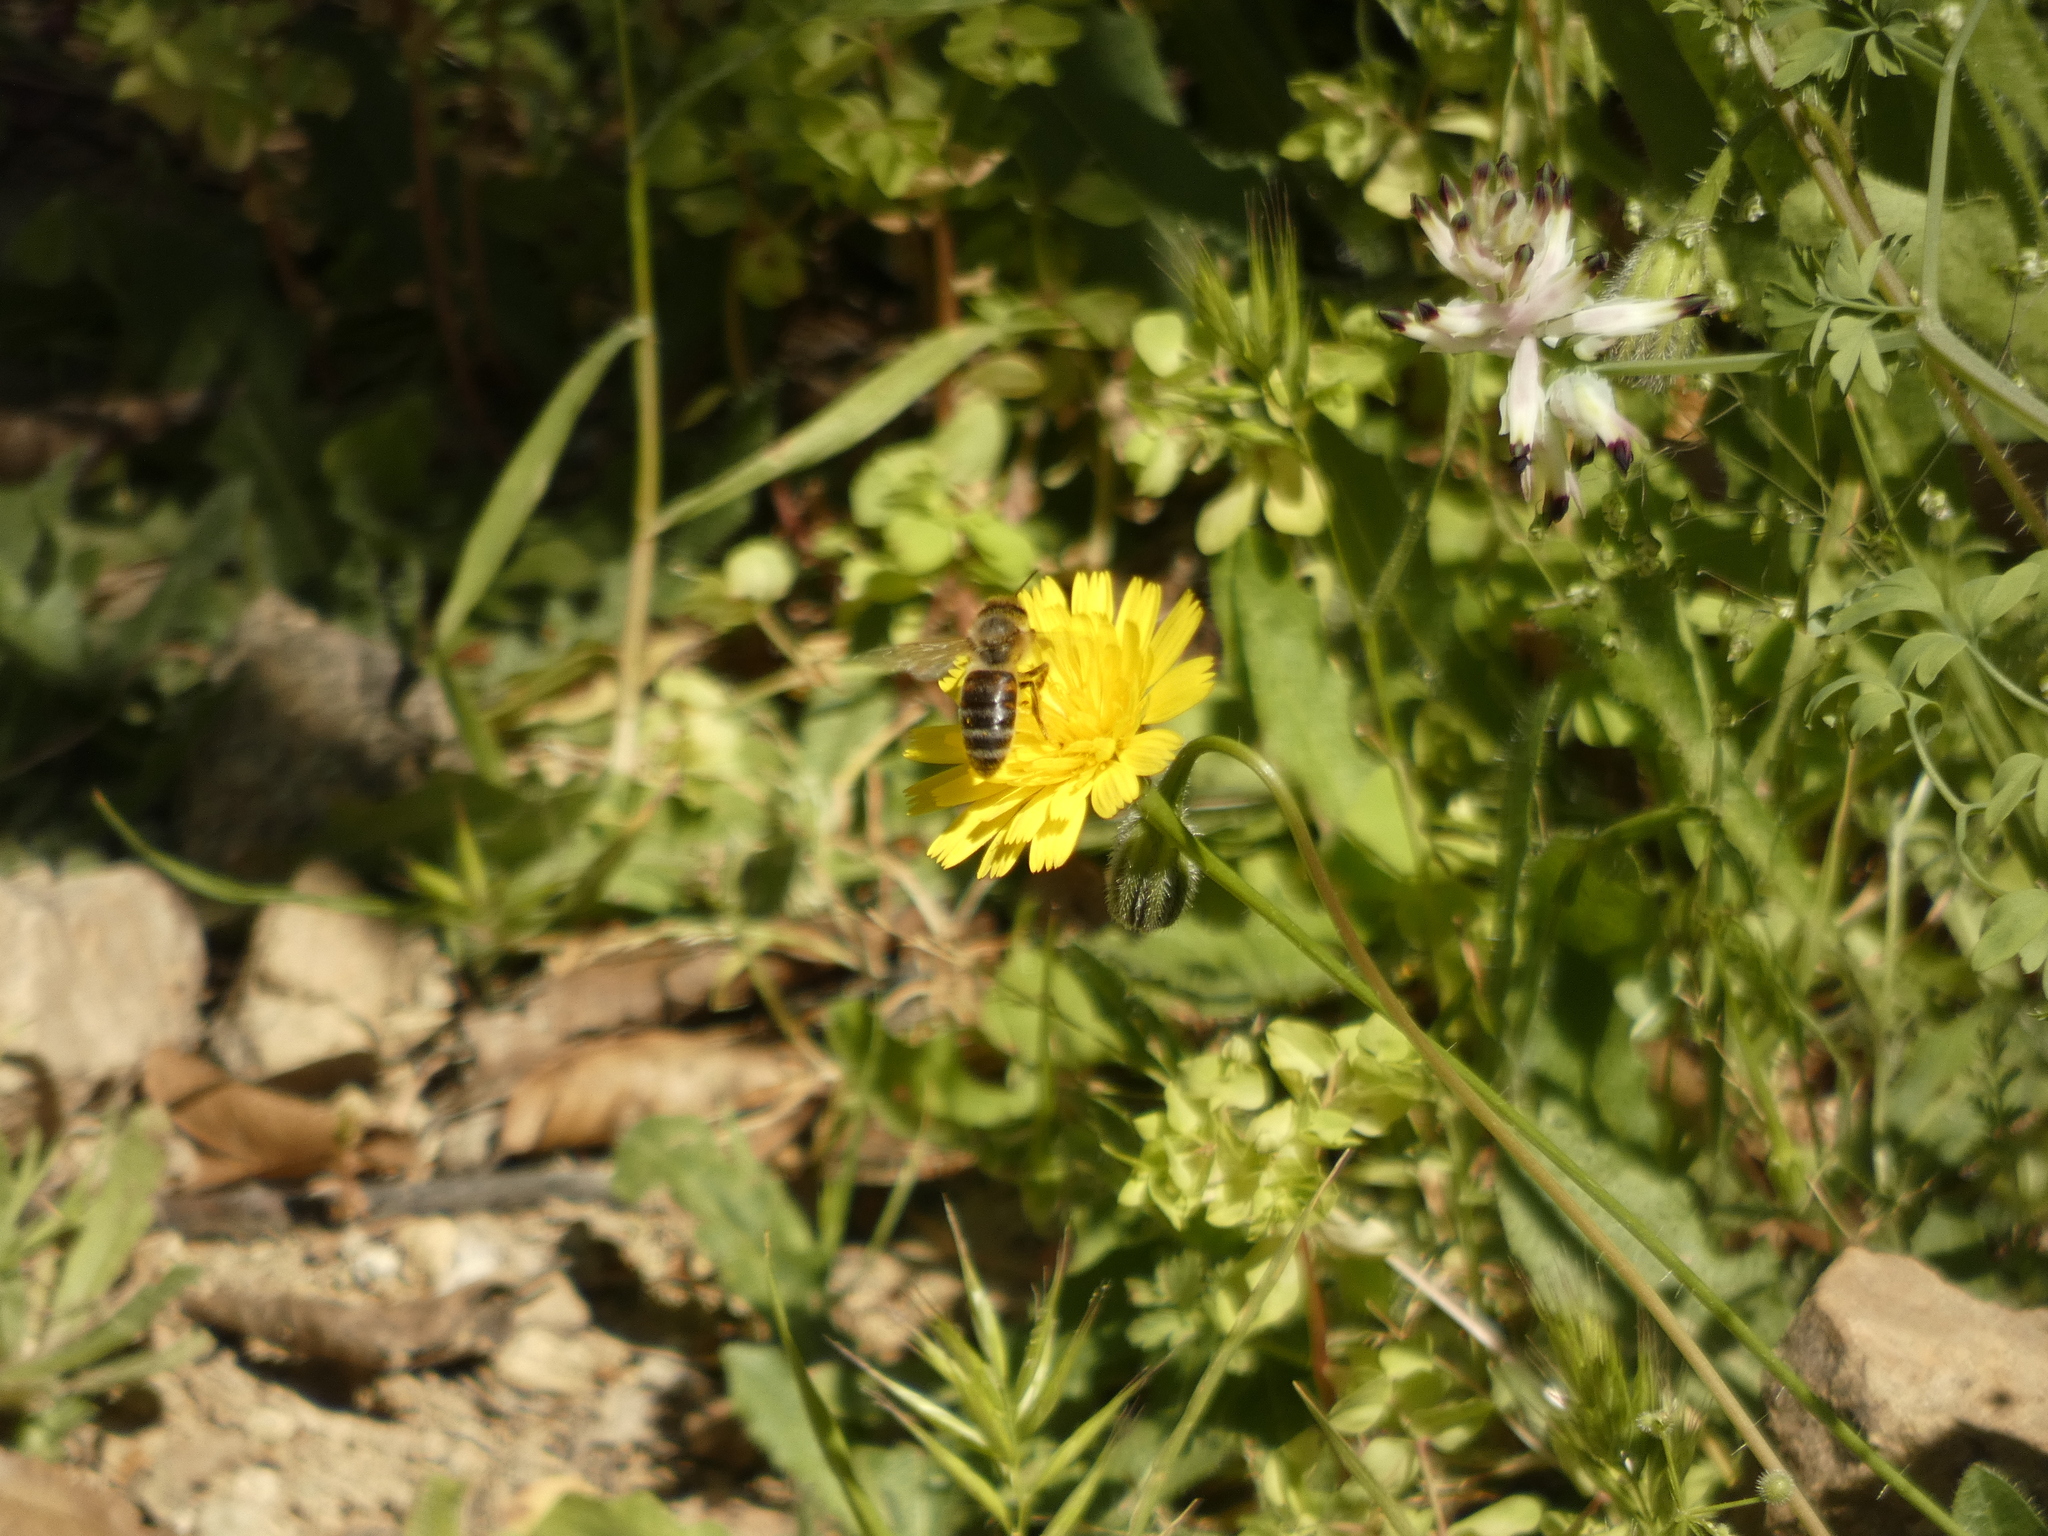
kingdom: Animalia
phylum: Arthropoda
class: Insecta
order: Hymenoptera
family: Apidae
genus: Apis
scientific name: Apis mellifera
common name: Honey bee
